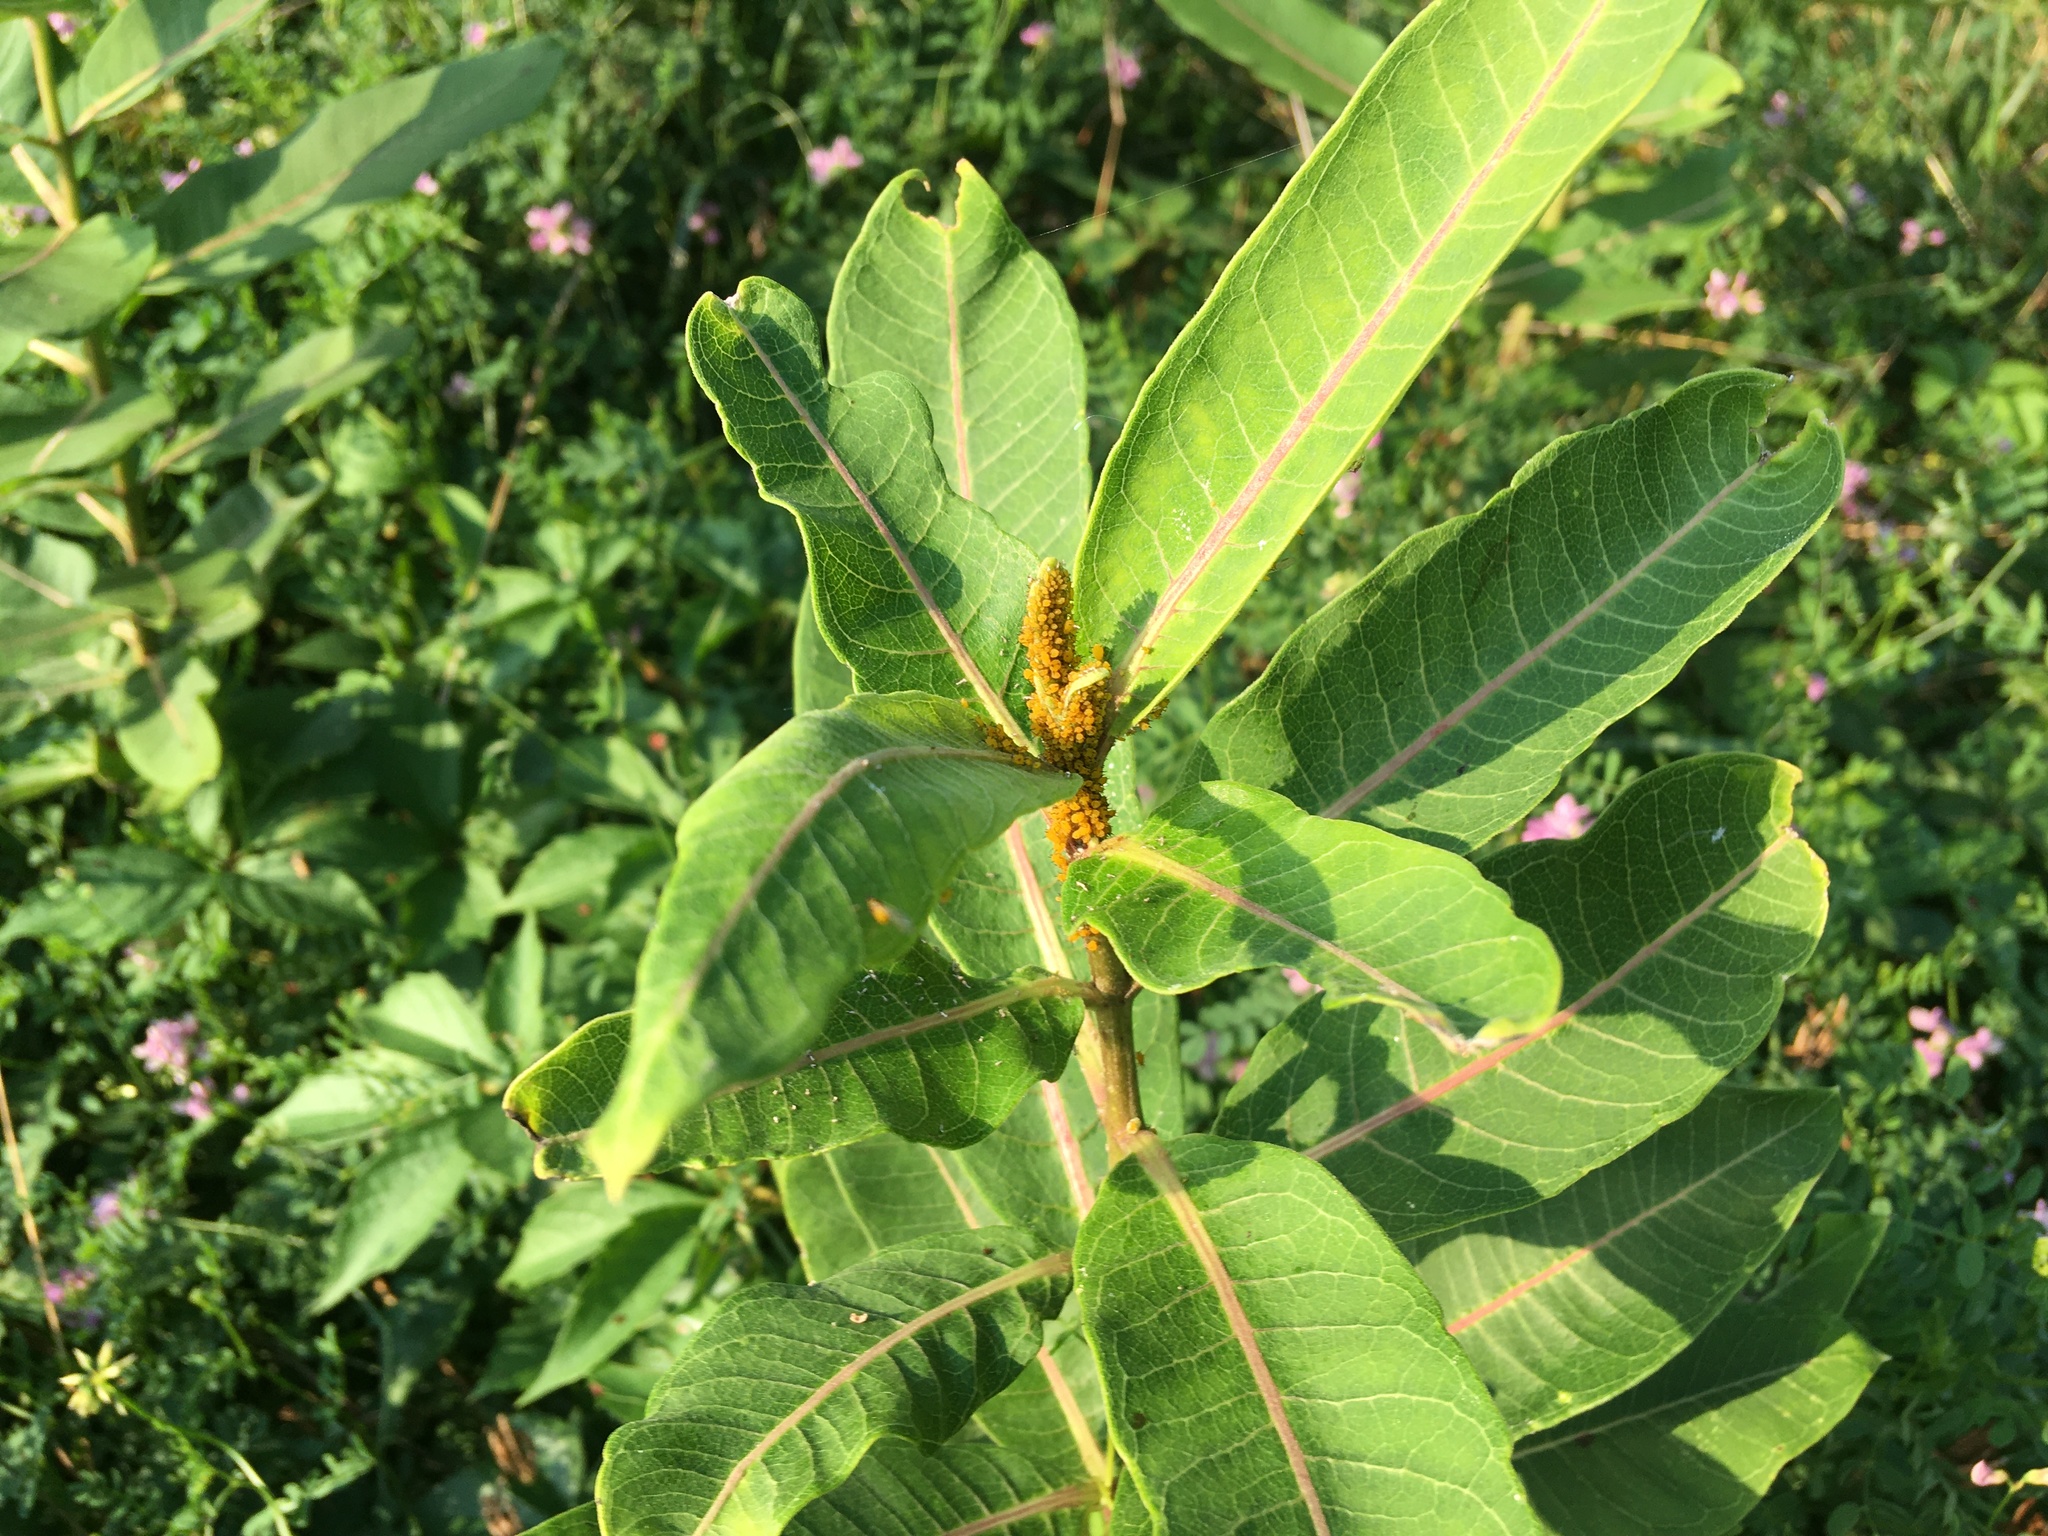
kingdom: Plantae
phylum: Tracheophyta
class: Magnoliopsida
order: Gentianales
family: Apocynaceae
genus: Asclepias
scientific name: Asclepias syriaca
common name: Common milkweed
